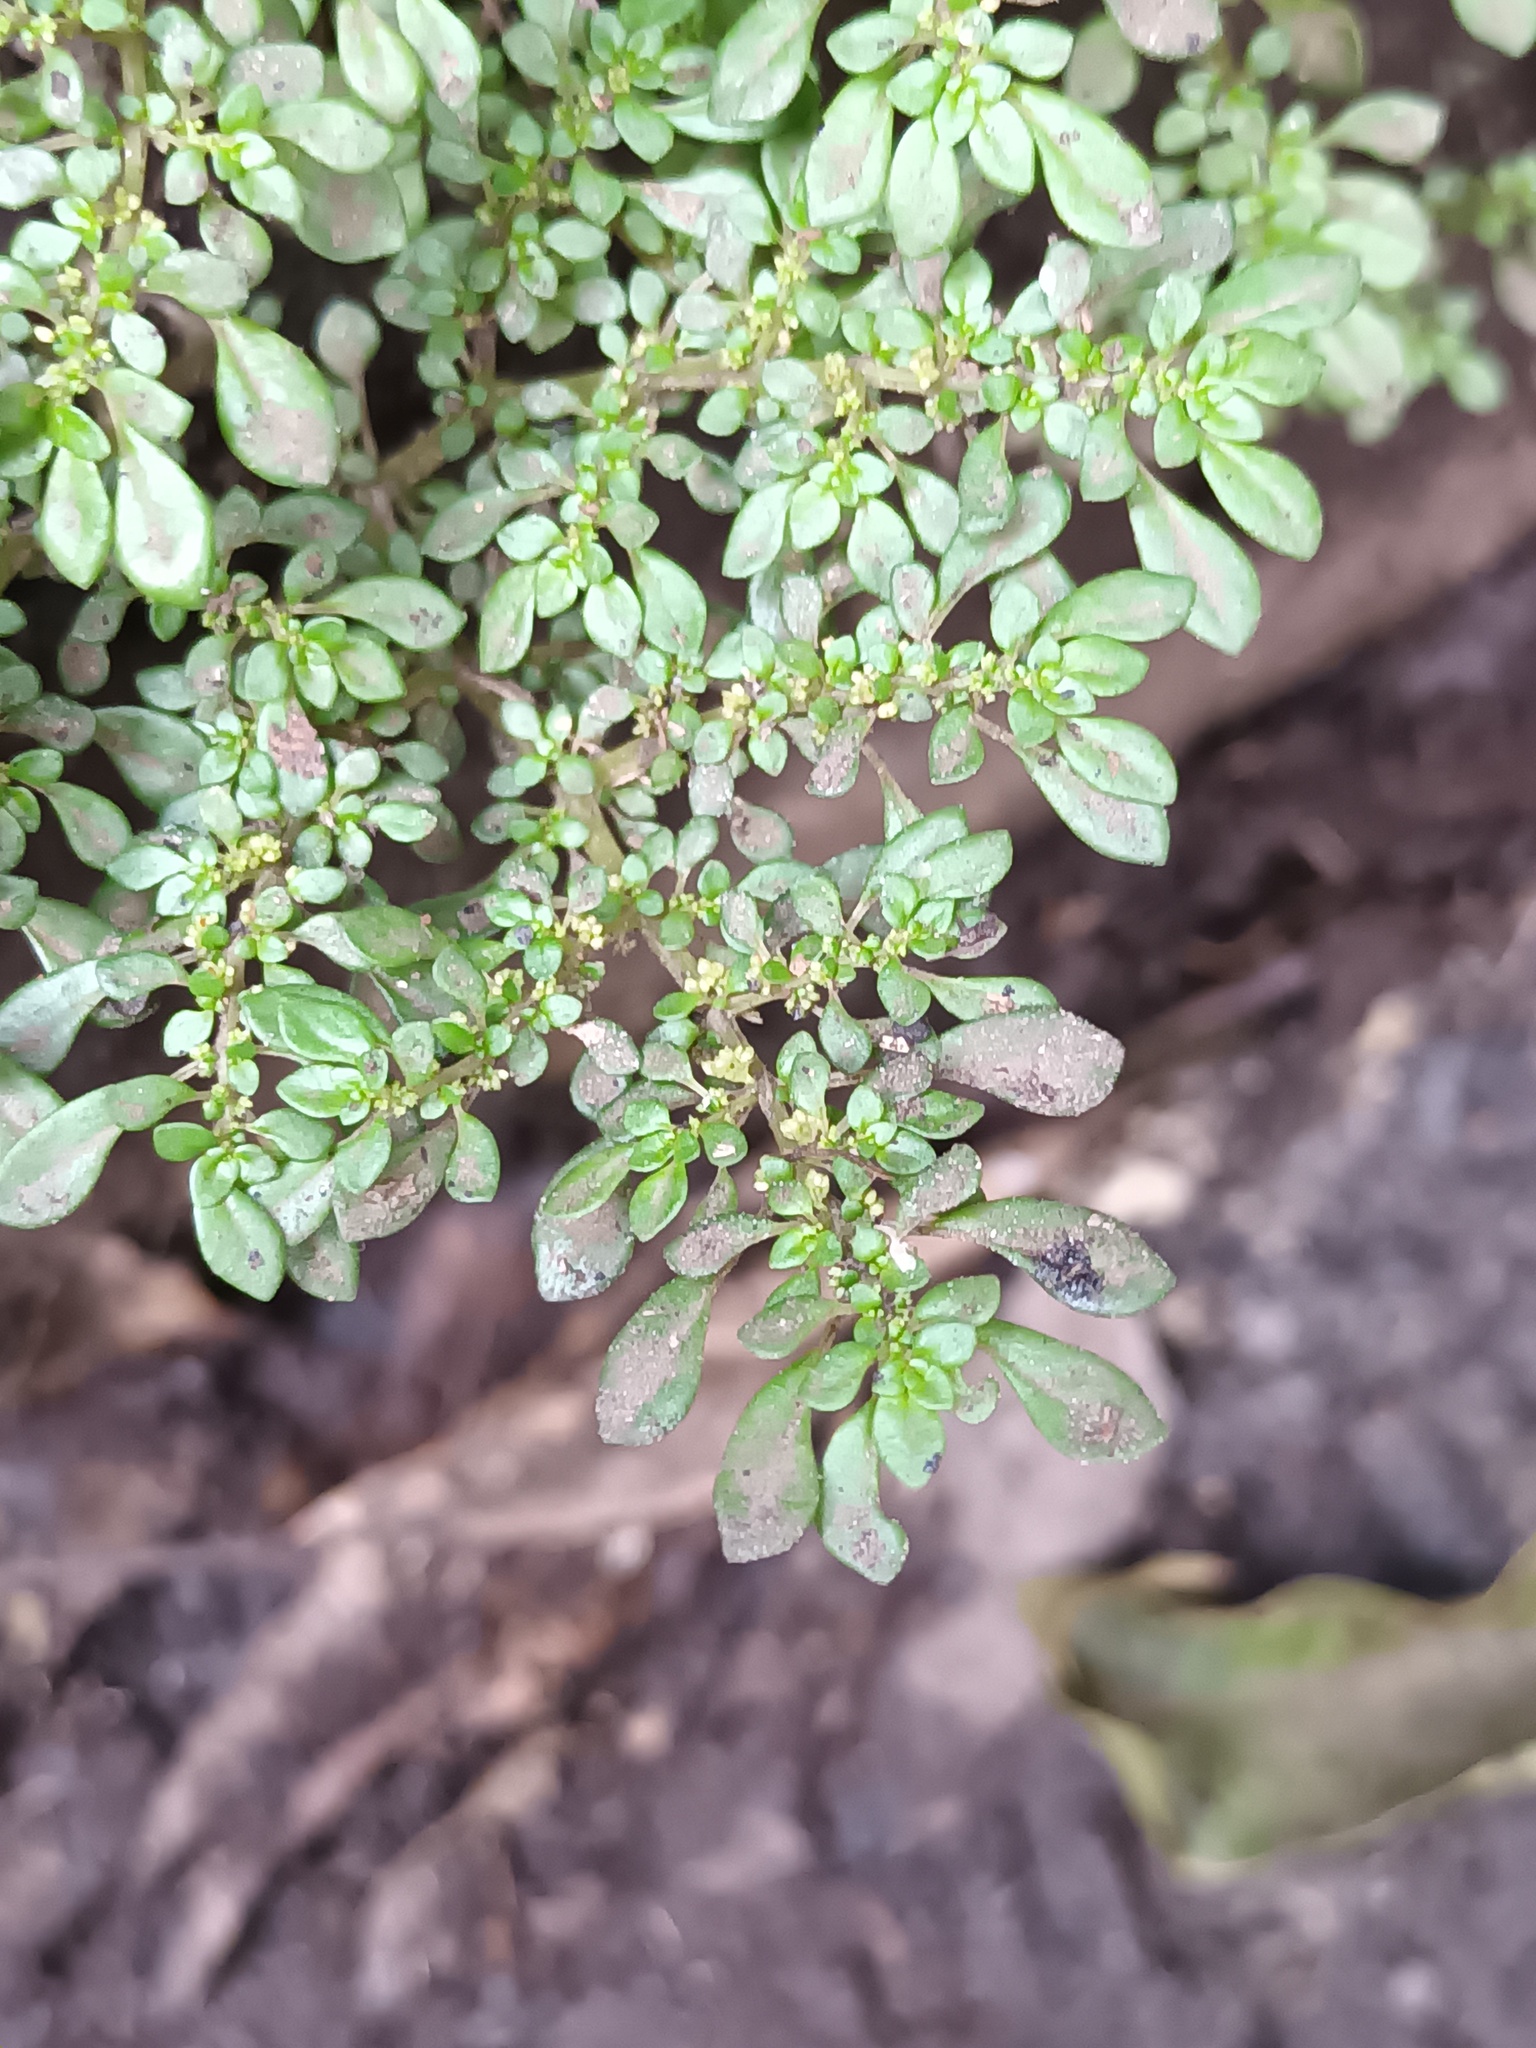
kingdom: Plantae
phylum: Tracheophyta
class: Magnoliopsida
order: Rosales
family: Urticaceae
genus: Pilea
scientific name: Pilea microphylla
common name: Artillery-plant
